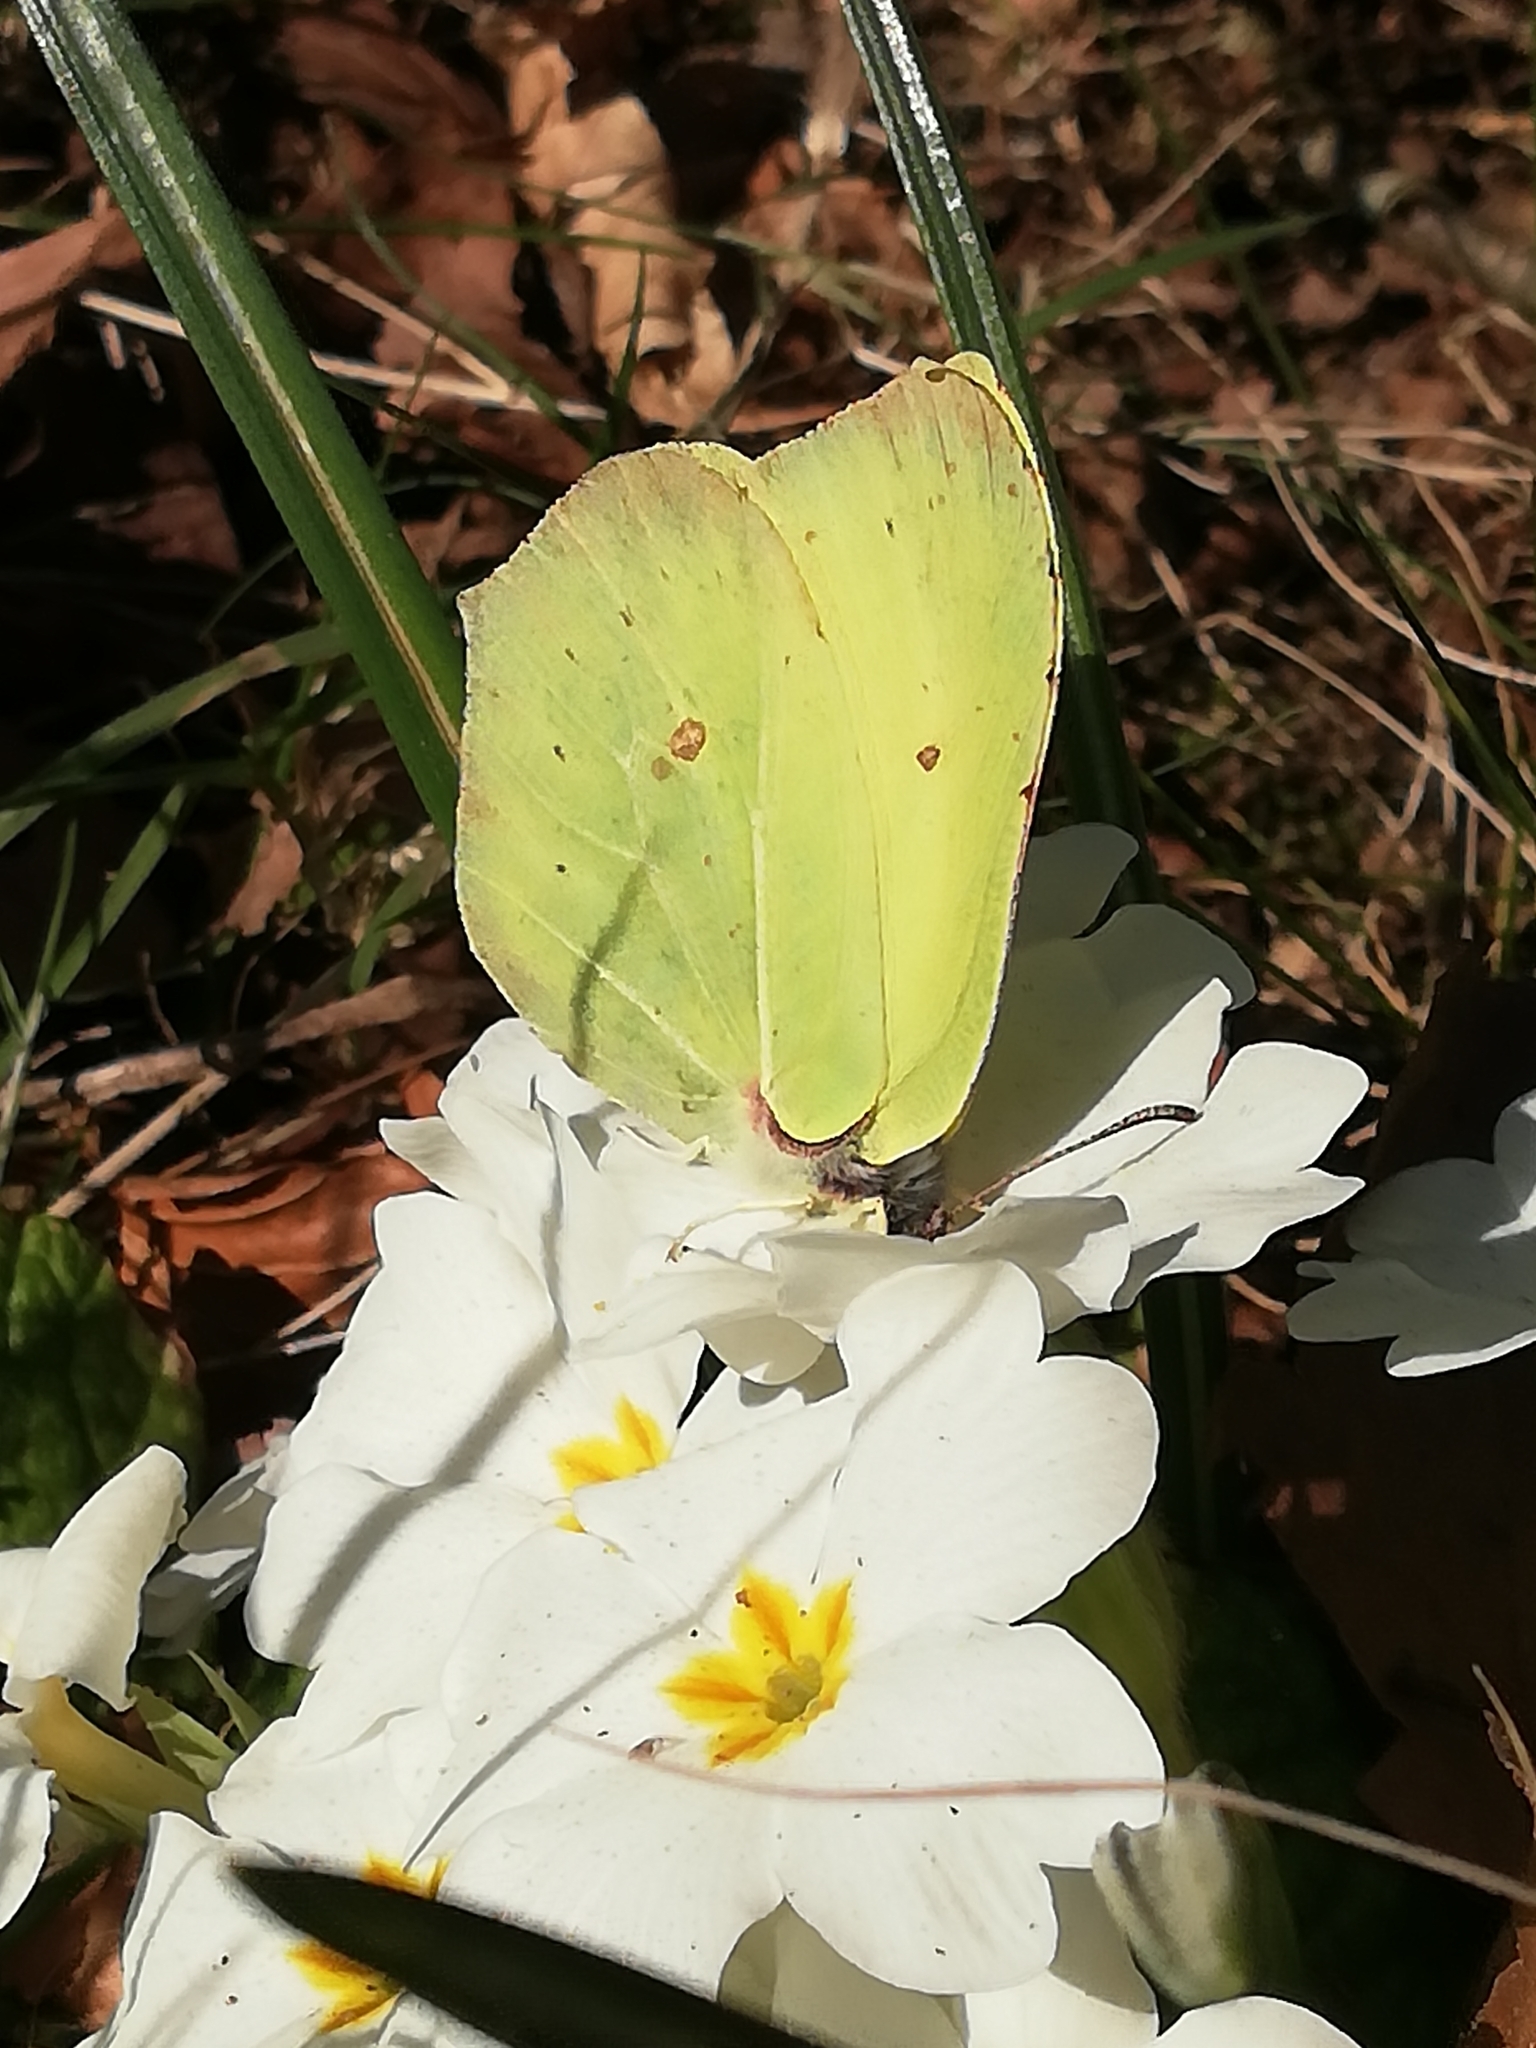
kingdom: Animalia
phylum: Arthropoda
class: Insecta
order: Lepidoptera
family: Pieridae
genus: Gonepteryx
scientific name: Gonepteryx rhamni
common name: Brimstone
